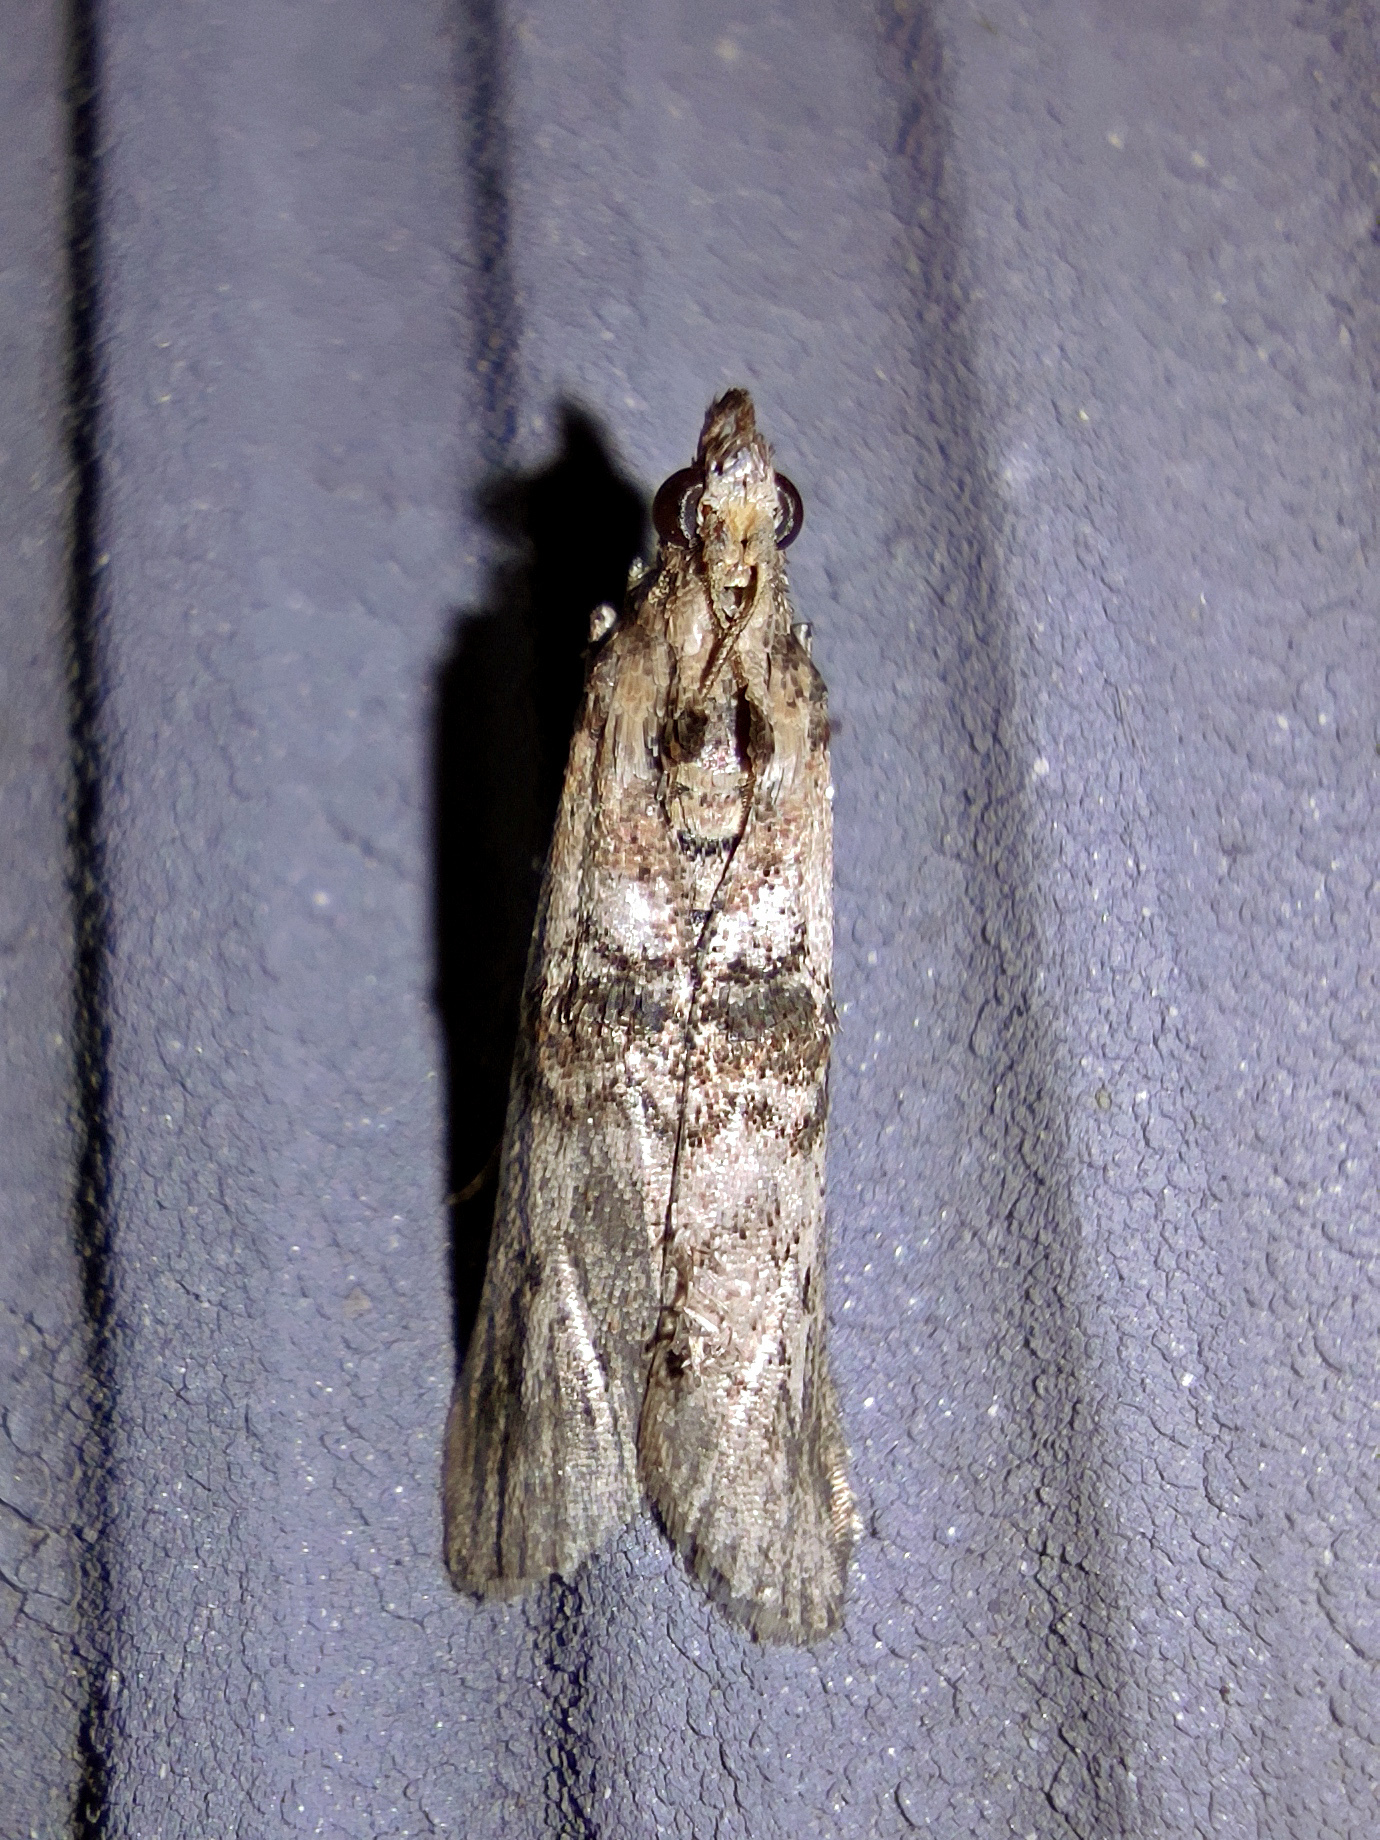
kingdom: Animalia
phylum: Arthropoda
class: Insecta
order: Lepidoptera
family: Pyralidae
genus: Nephopterix
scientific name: Nephopterix angustella
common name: Spindle knot-horn
